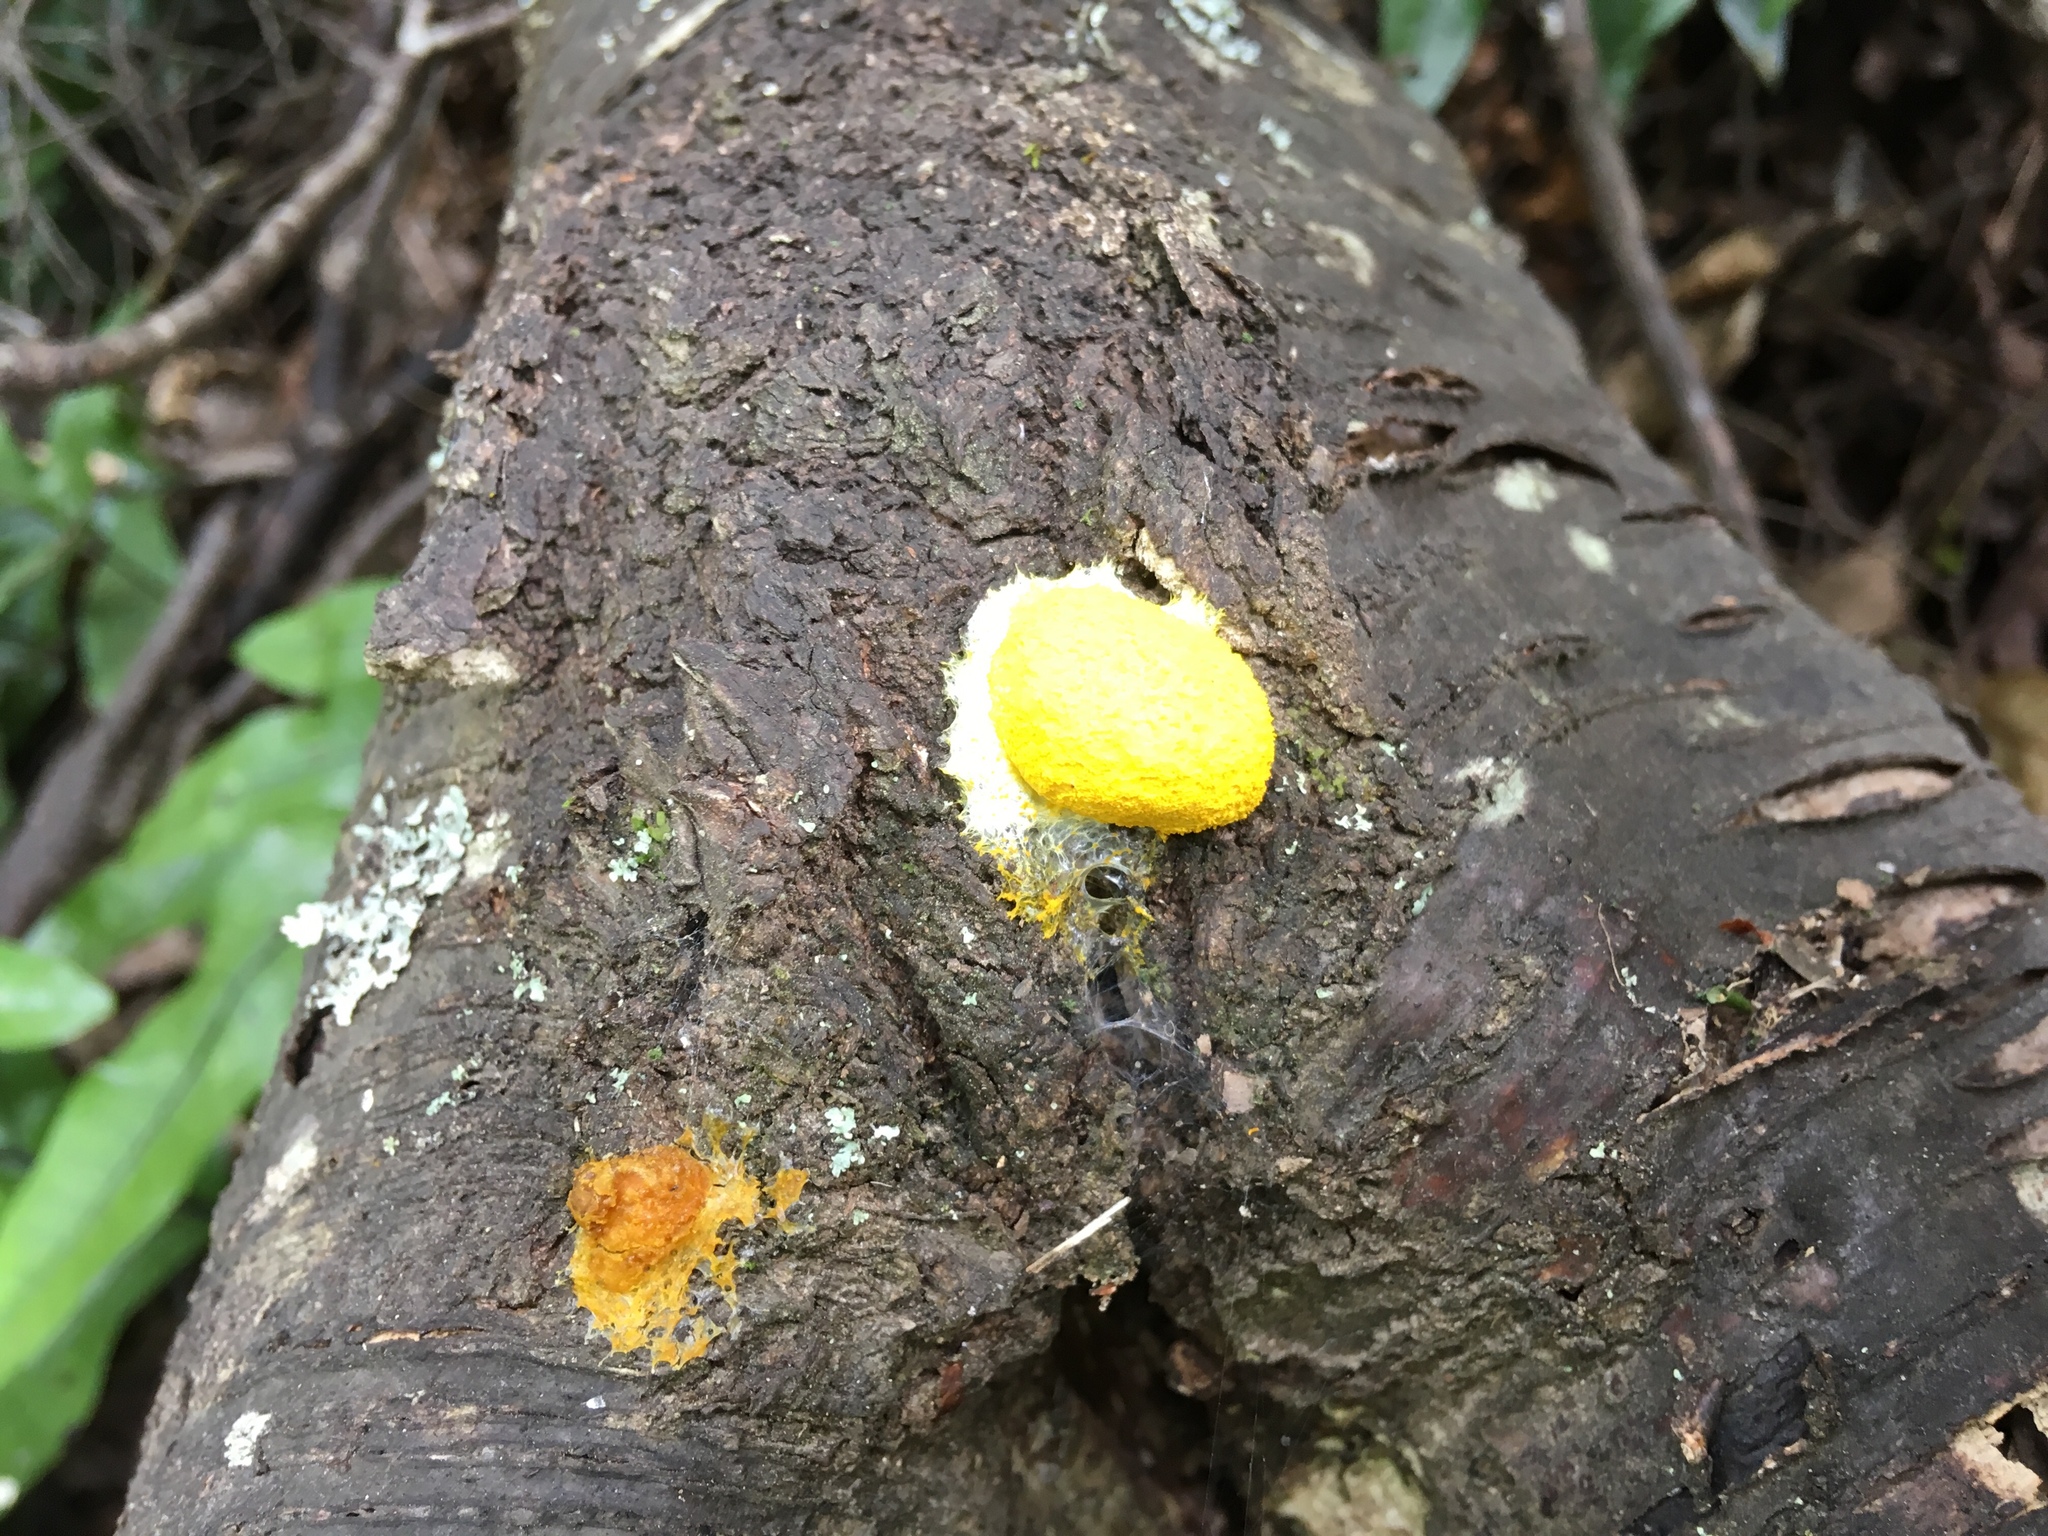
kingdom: Protozoa
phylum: Mycetozoa
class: Myxomycetes
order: Physarales
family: Physaraceae
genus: Fuligo
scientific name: Fuligo septica
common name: Dog vomit slime mold
